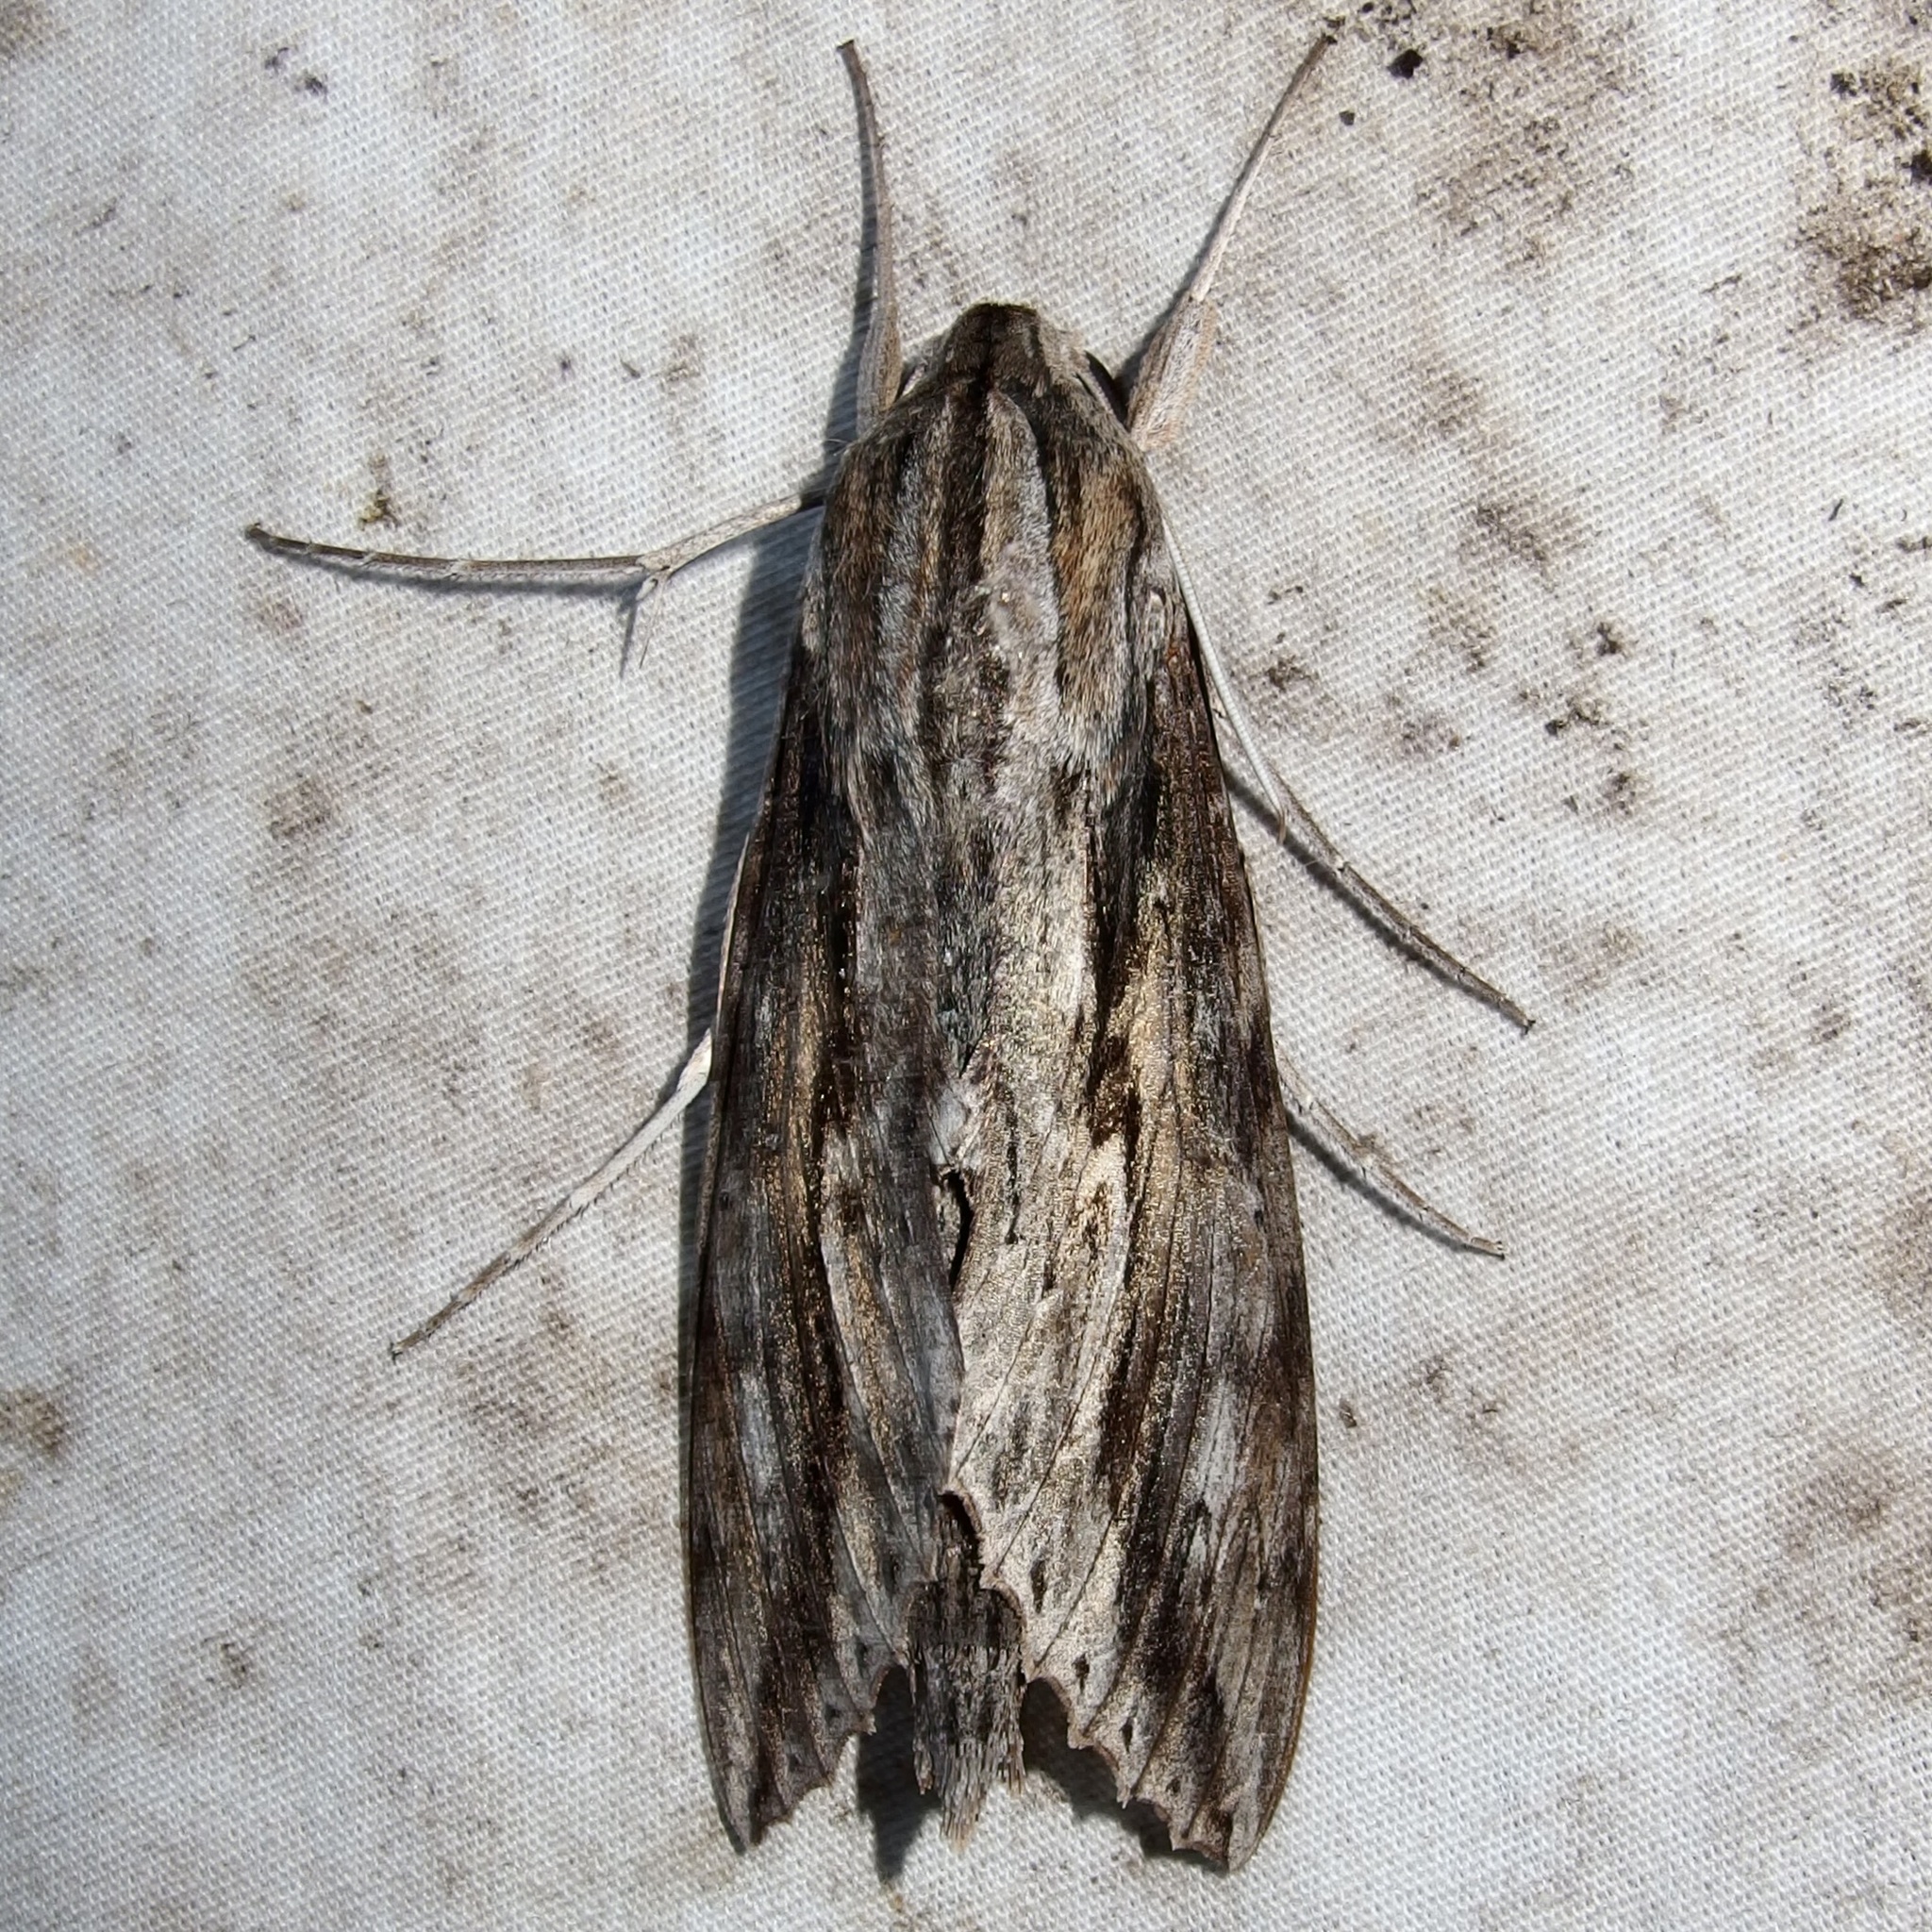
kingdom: Animalia
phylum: Arthropoda
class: Insecta
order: Lepidoptera
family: Sphingidae
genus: Erinnyis
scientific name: Erinnyis ello
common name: Ello sphinx
